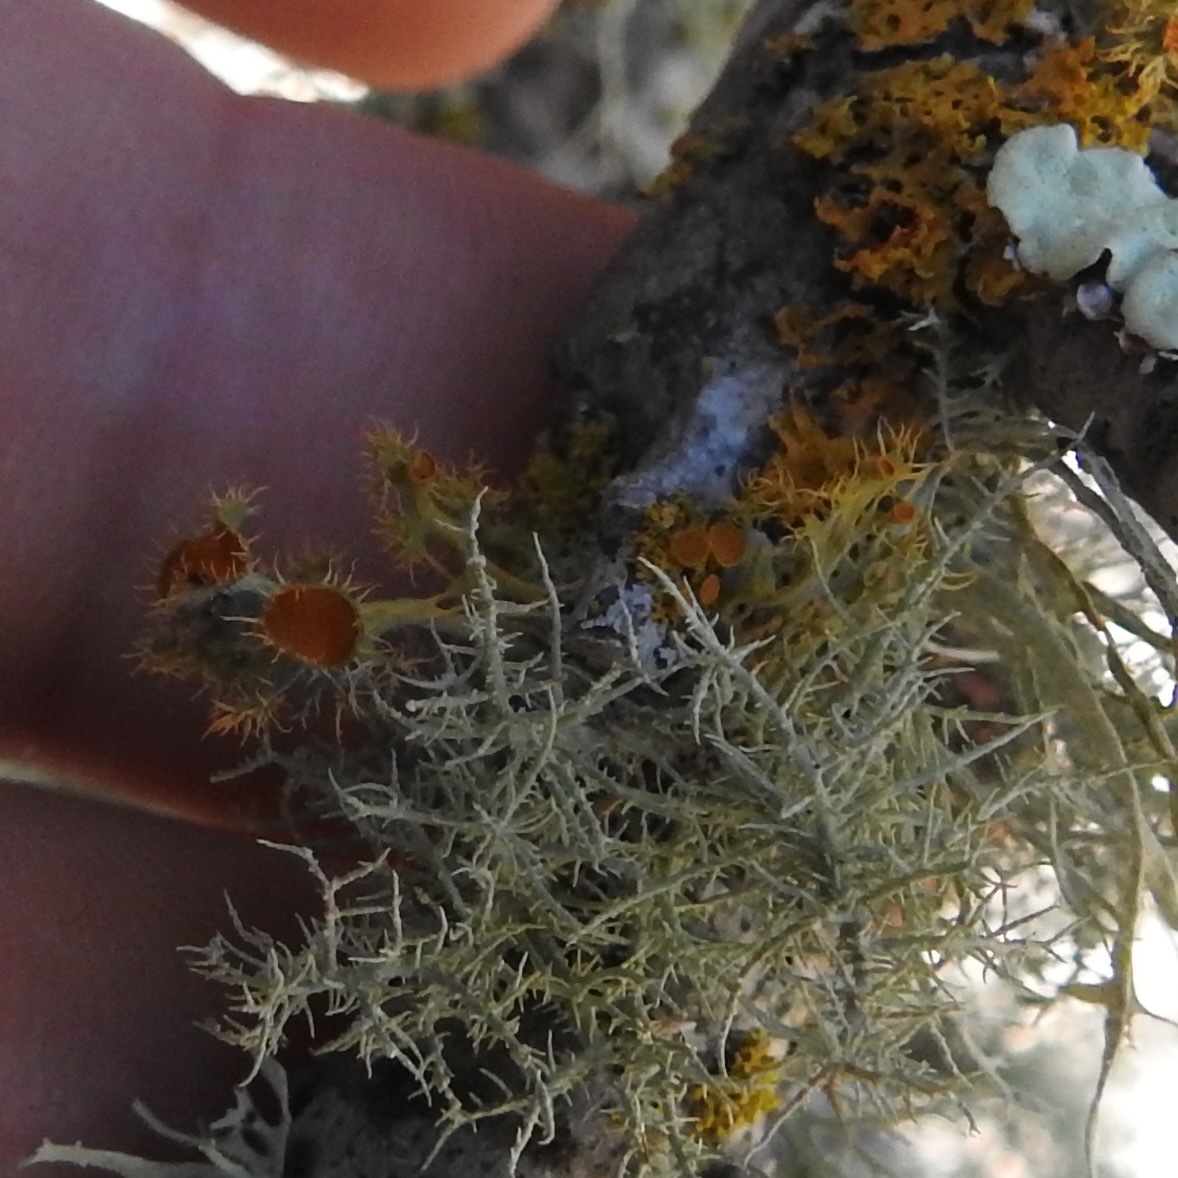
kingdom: Fungi
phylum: Ascomycota
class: Lecanoromycetes
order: Teloschistales
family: Teloschistaceae
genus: Niorma
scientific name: Niorma chrysophthalma
